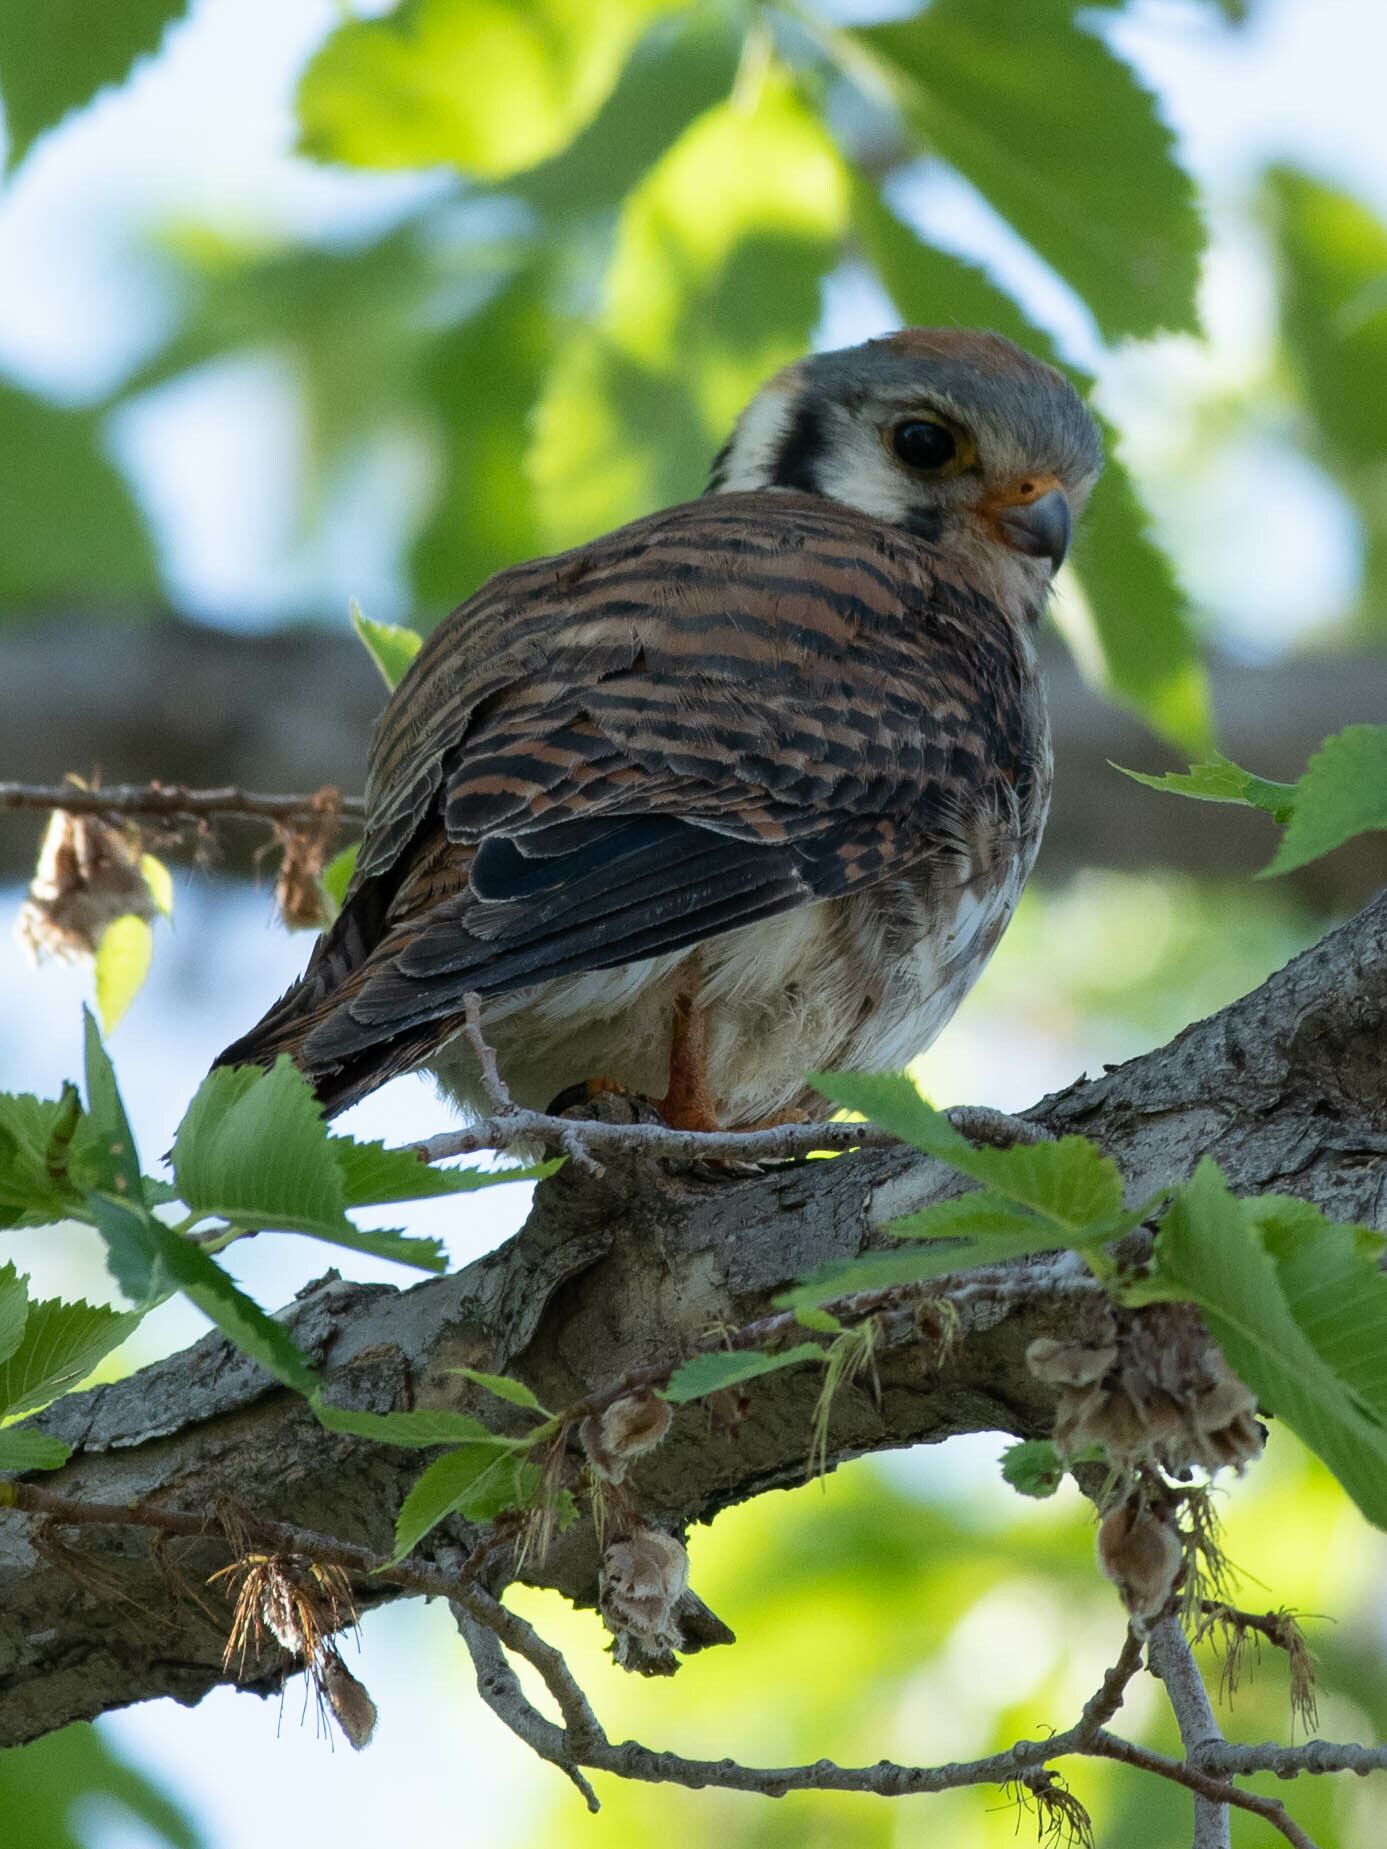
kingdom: Animalia
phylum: Chordata
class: Aves
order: Falconiformes
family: Falconidae
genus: Falco
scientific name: Falco sparverius
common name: American kestrel
